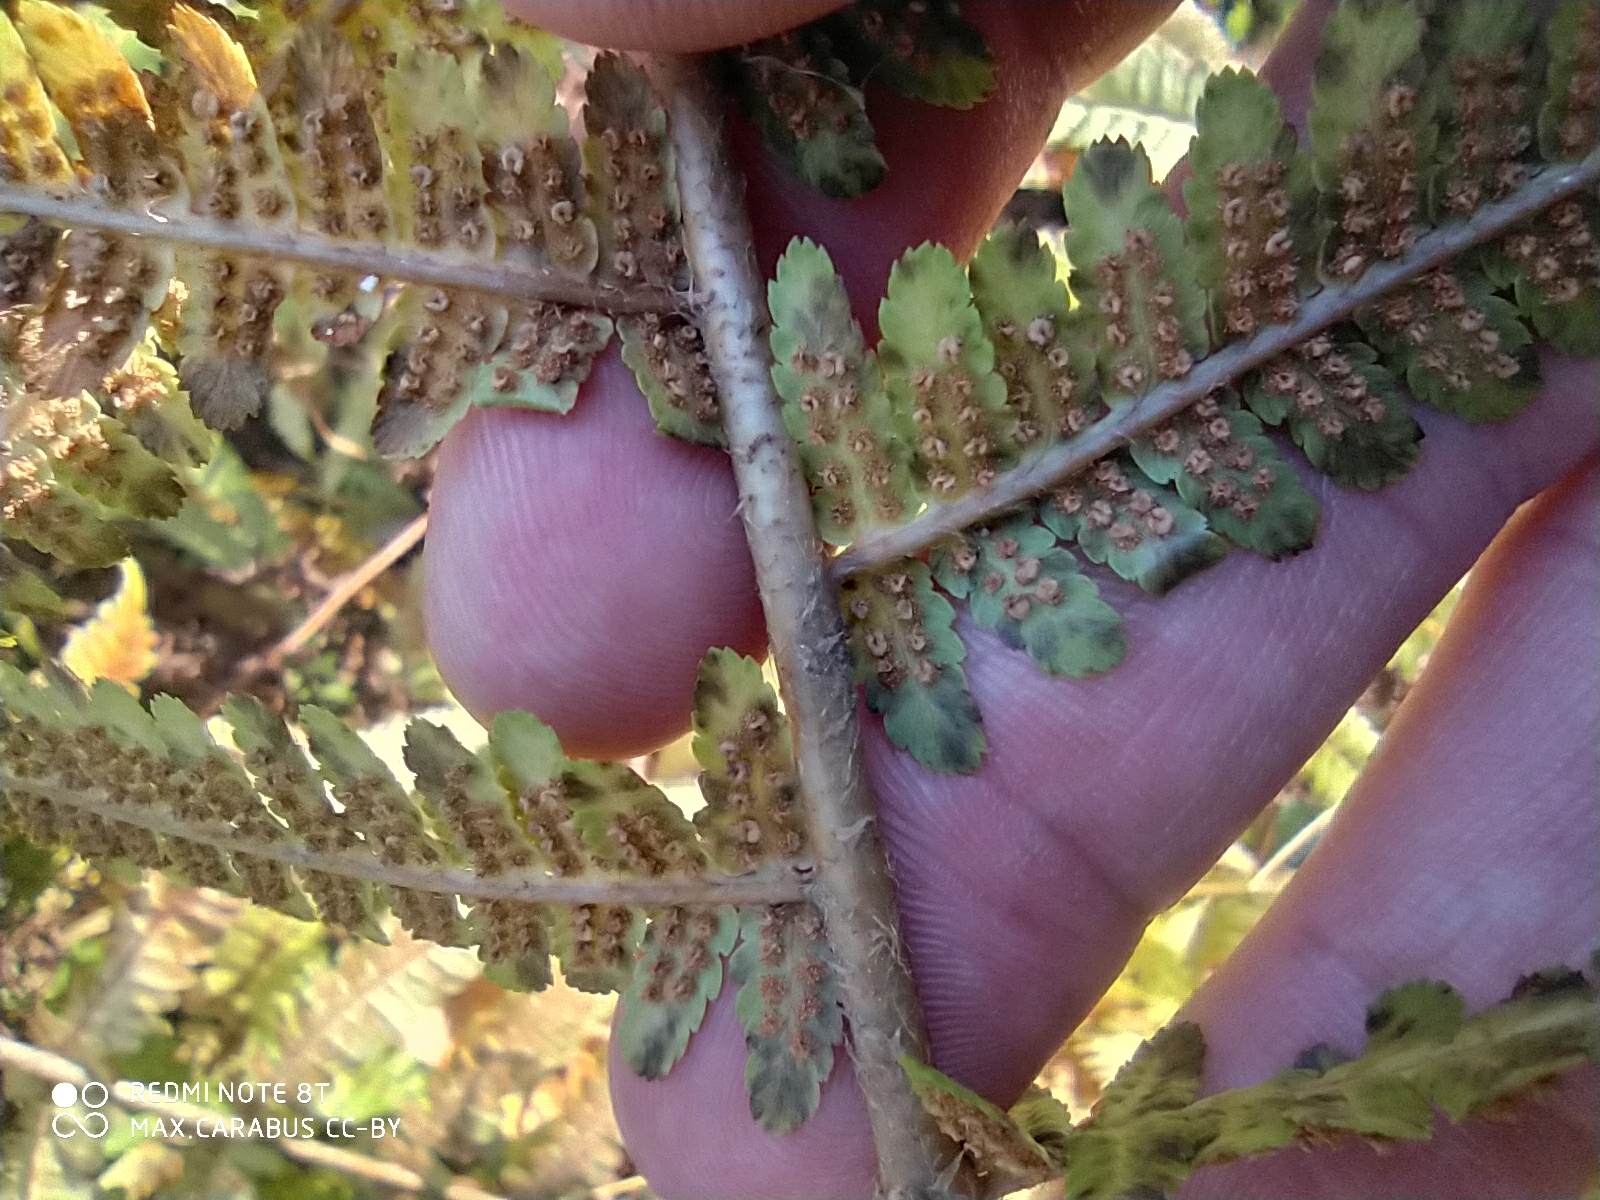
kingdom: Plantae
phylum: Tracheophyta
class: Polypodiopsida
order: Polypodiales
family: Dryopteridaceae
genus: Dryopteris
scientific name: Dryopteris filix-mas
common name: Male fern
